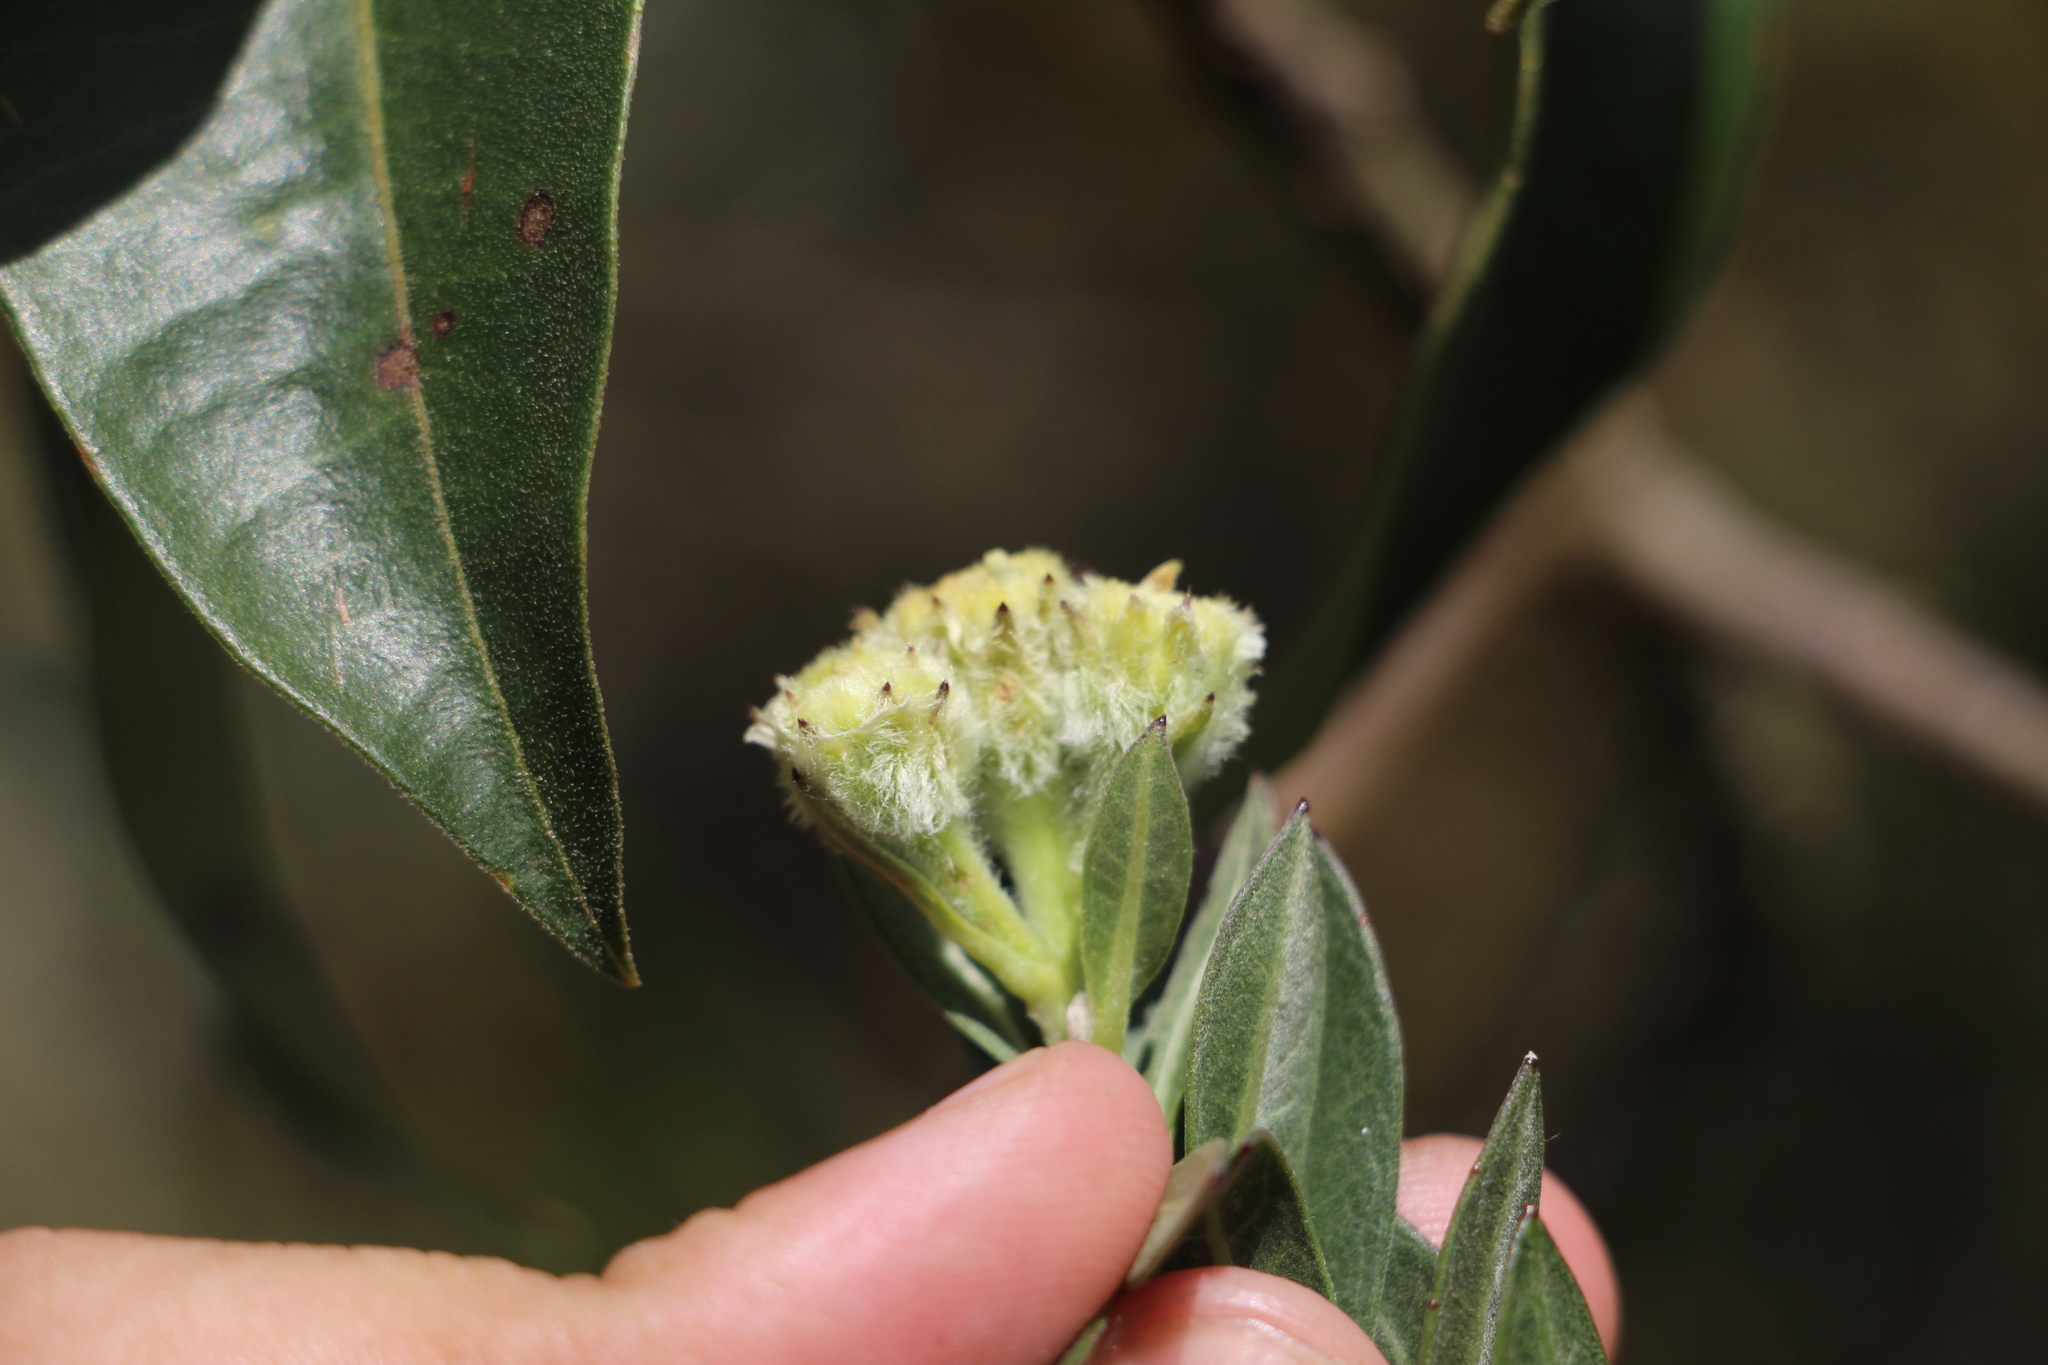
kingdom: Plantae
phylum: Tracheophyta
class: Magnoliopsida
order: Asterales
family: Asteraceae
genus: Verbesina
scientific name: Verbesina baccharidea
